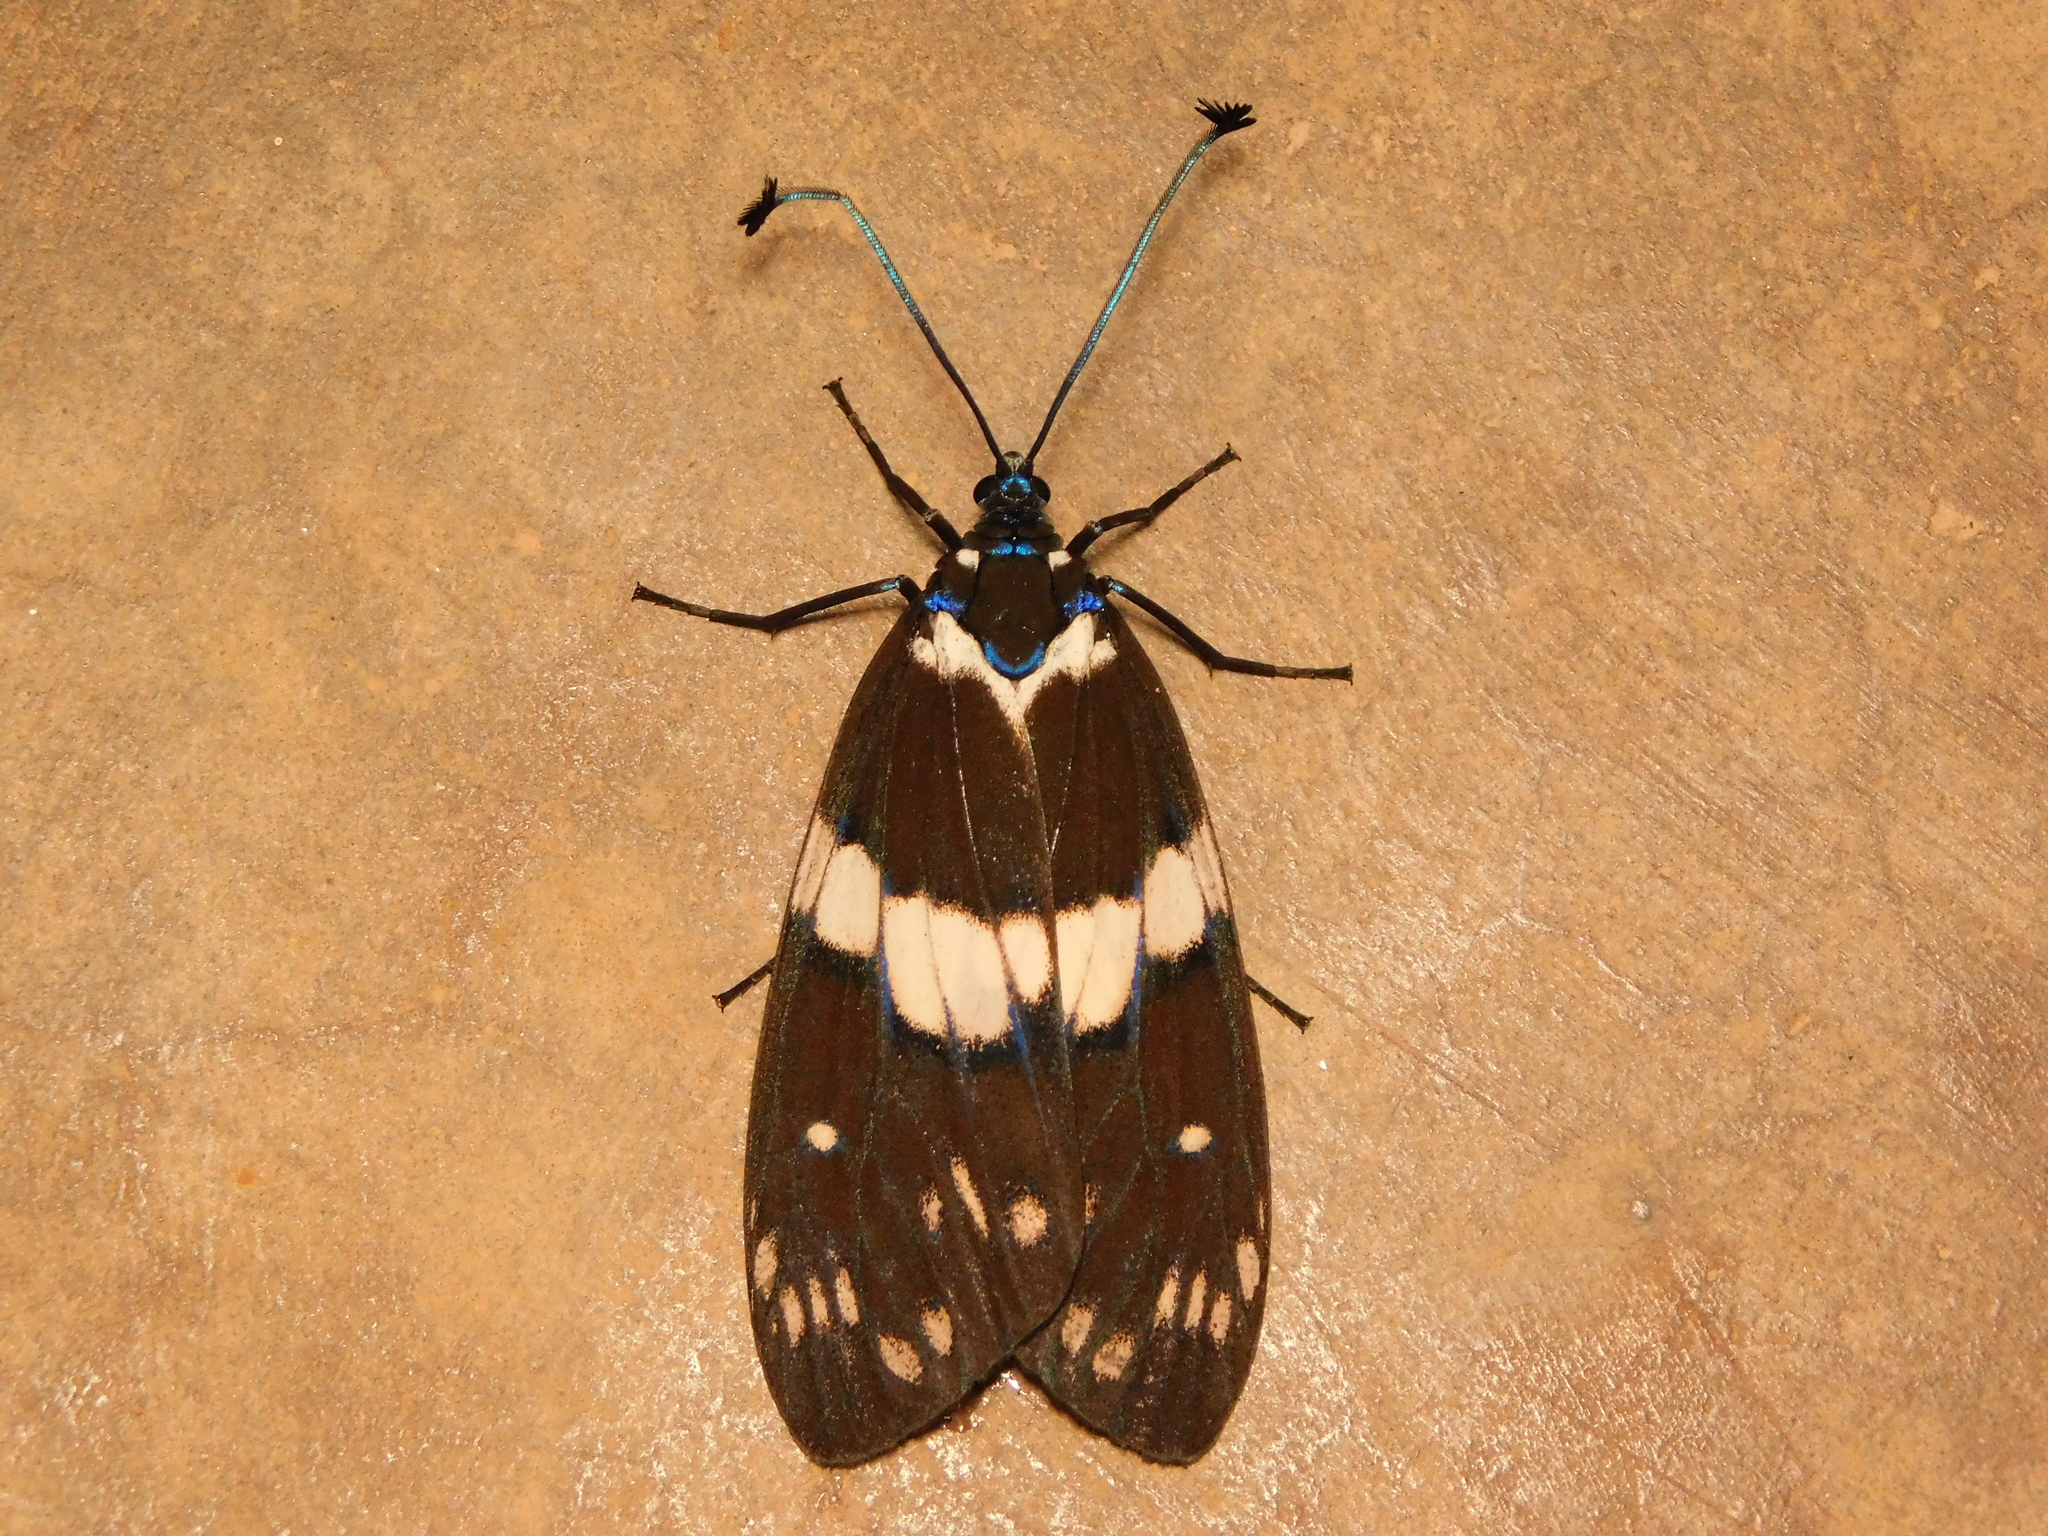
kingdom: Animalia
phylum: Arthropoda
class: Insecta
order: Lepidoptera
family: Zygaenidae
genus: Eterusia
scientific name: Eterusia aedea
